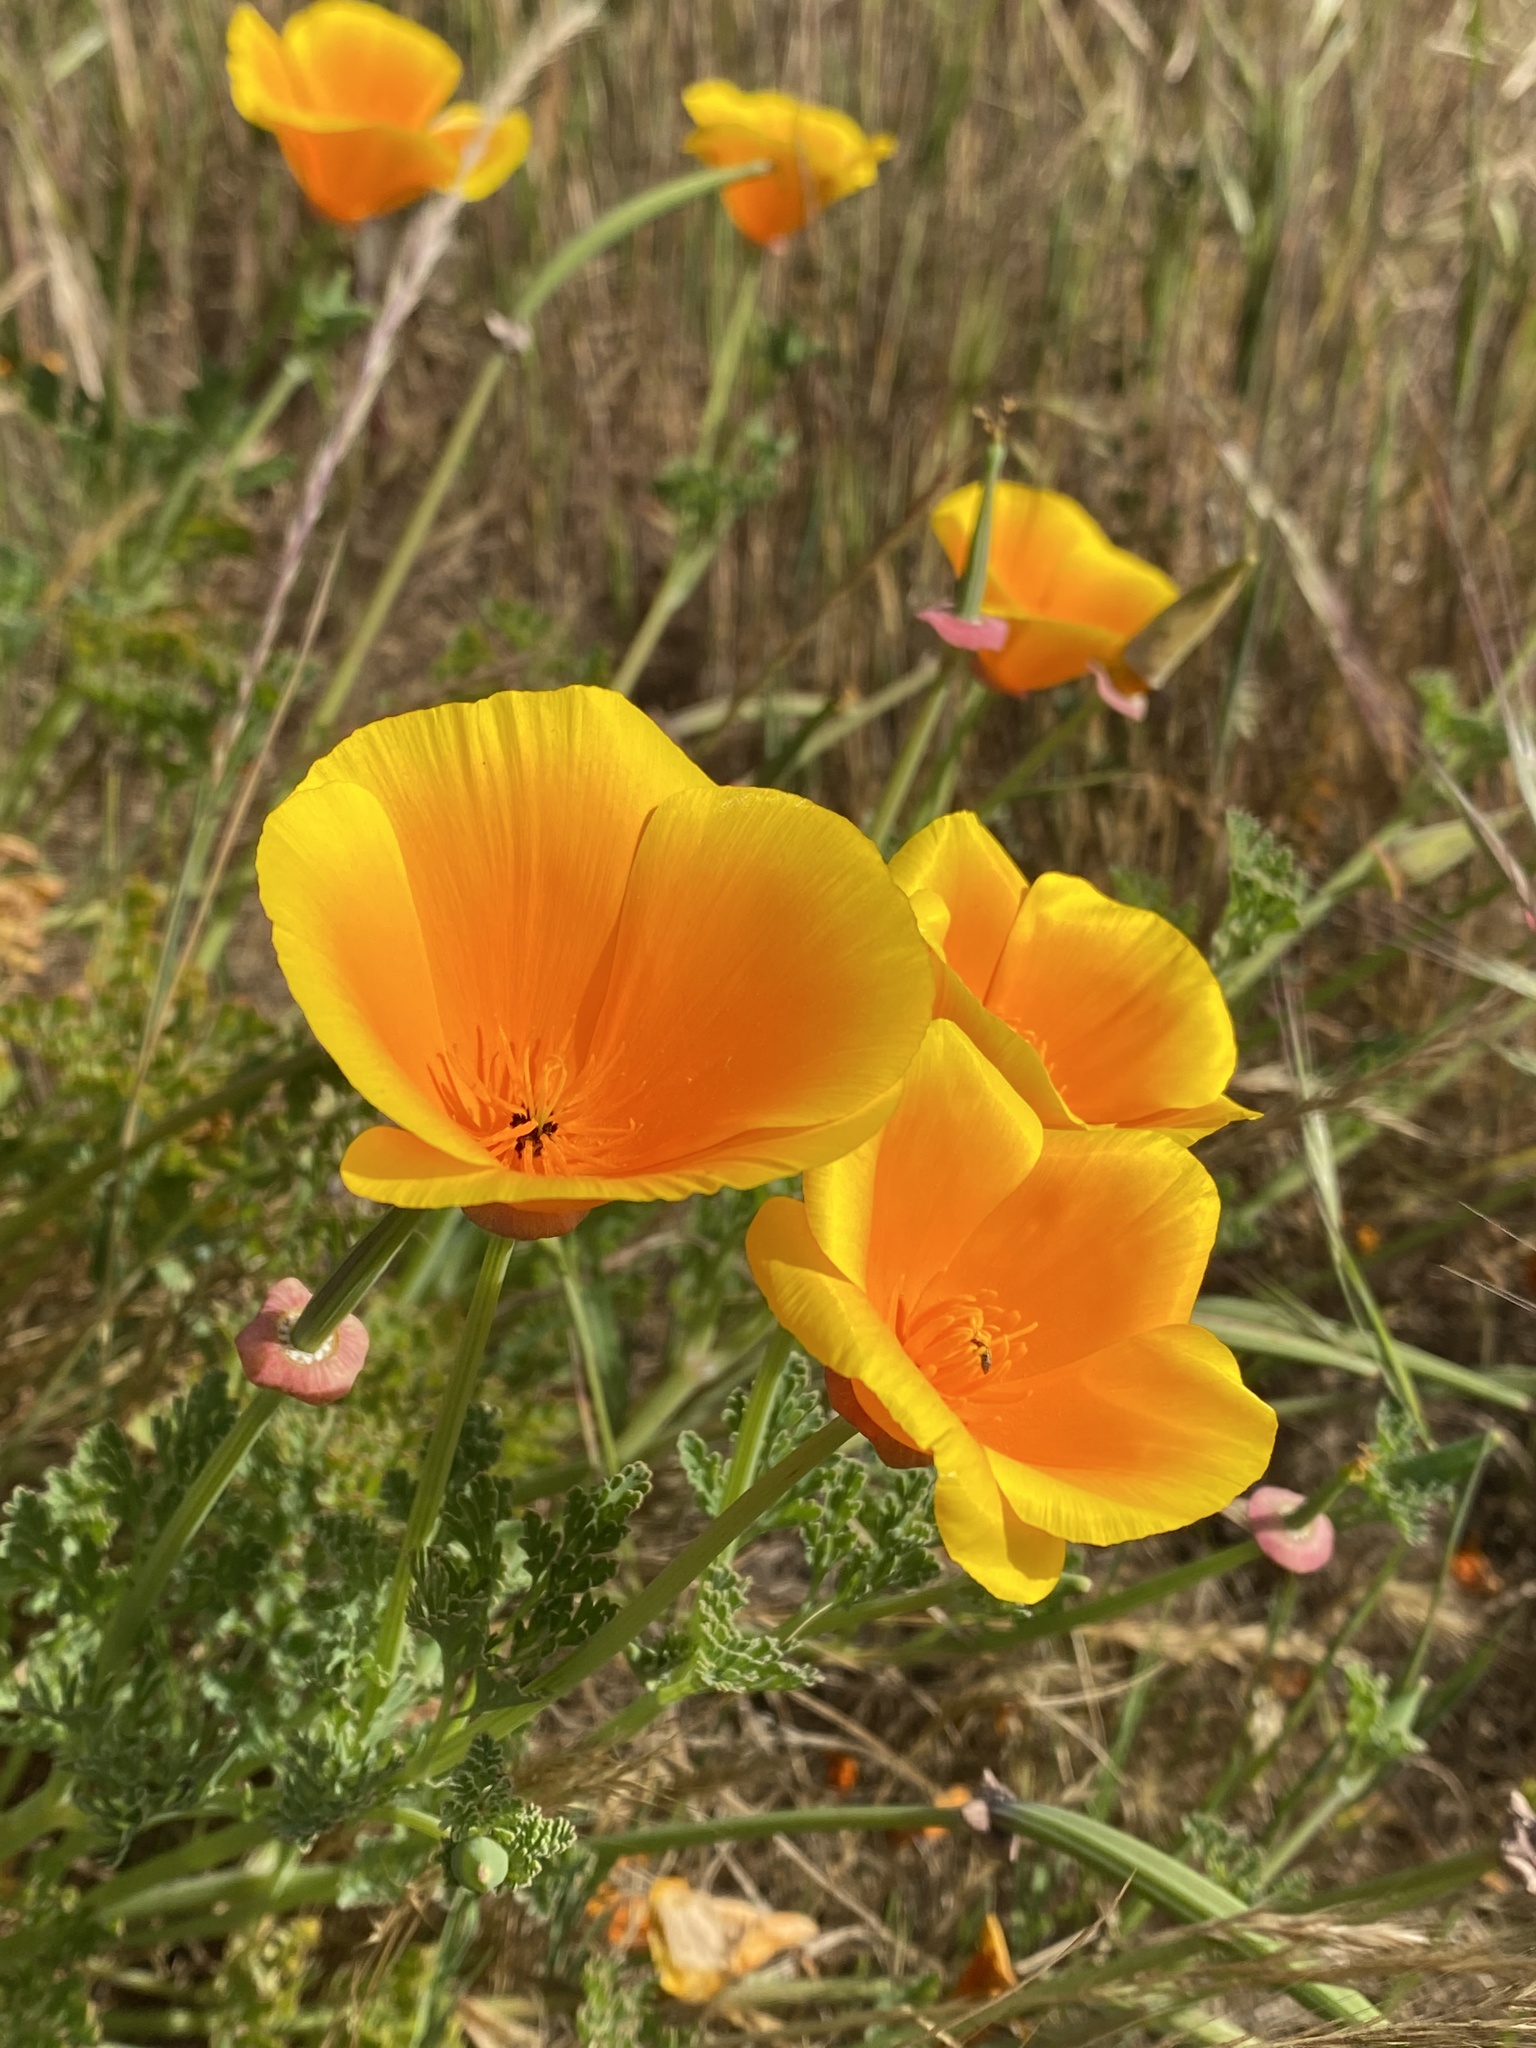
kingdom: Plantae
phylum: Tracheophyta
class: Magnoliopsida
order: Ranunculales
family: Papaveraceae
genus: Eschscholzia
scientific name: Eschscholzia californica
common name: California poppy
